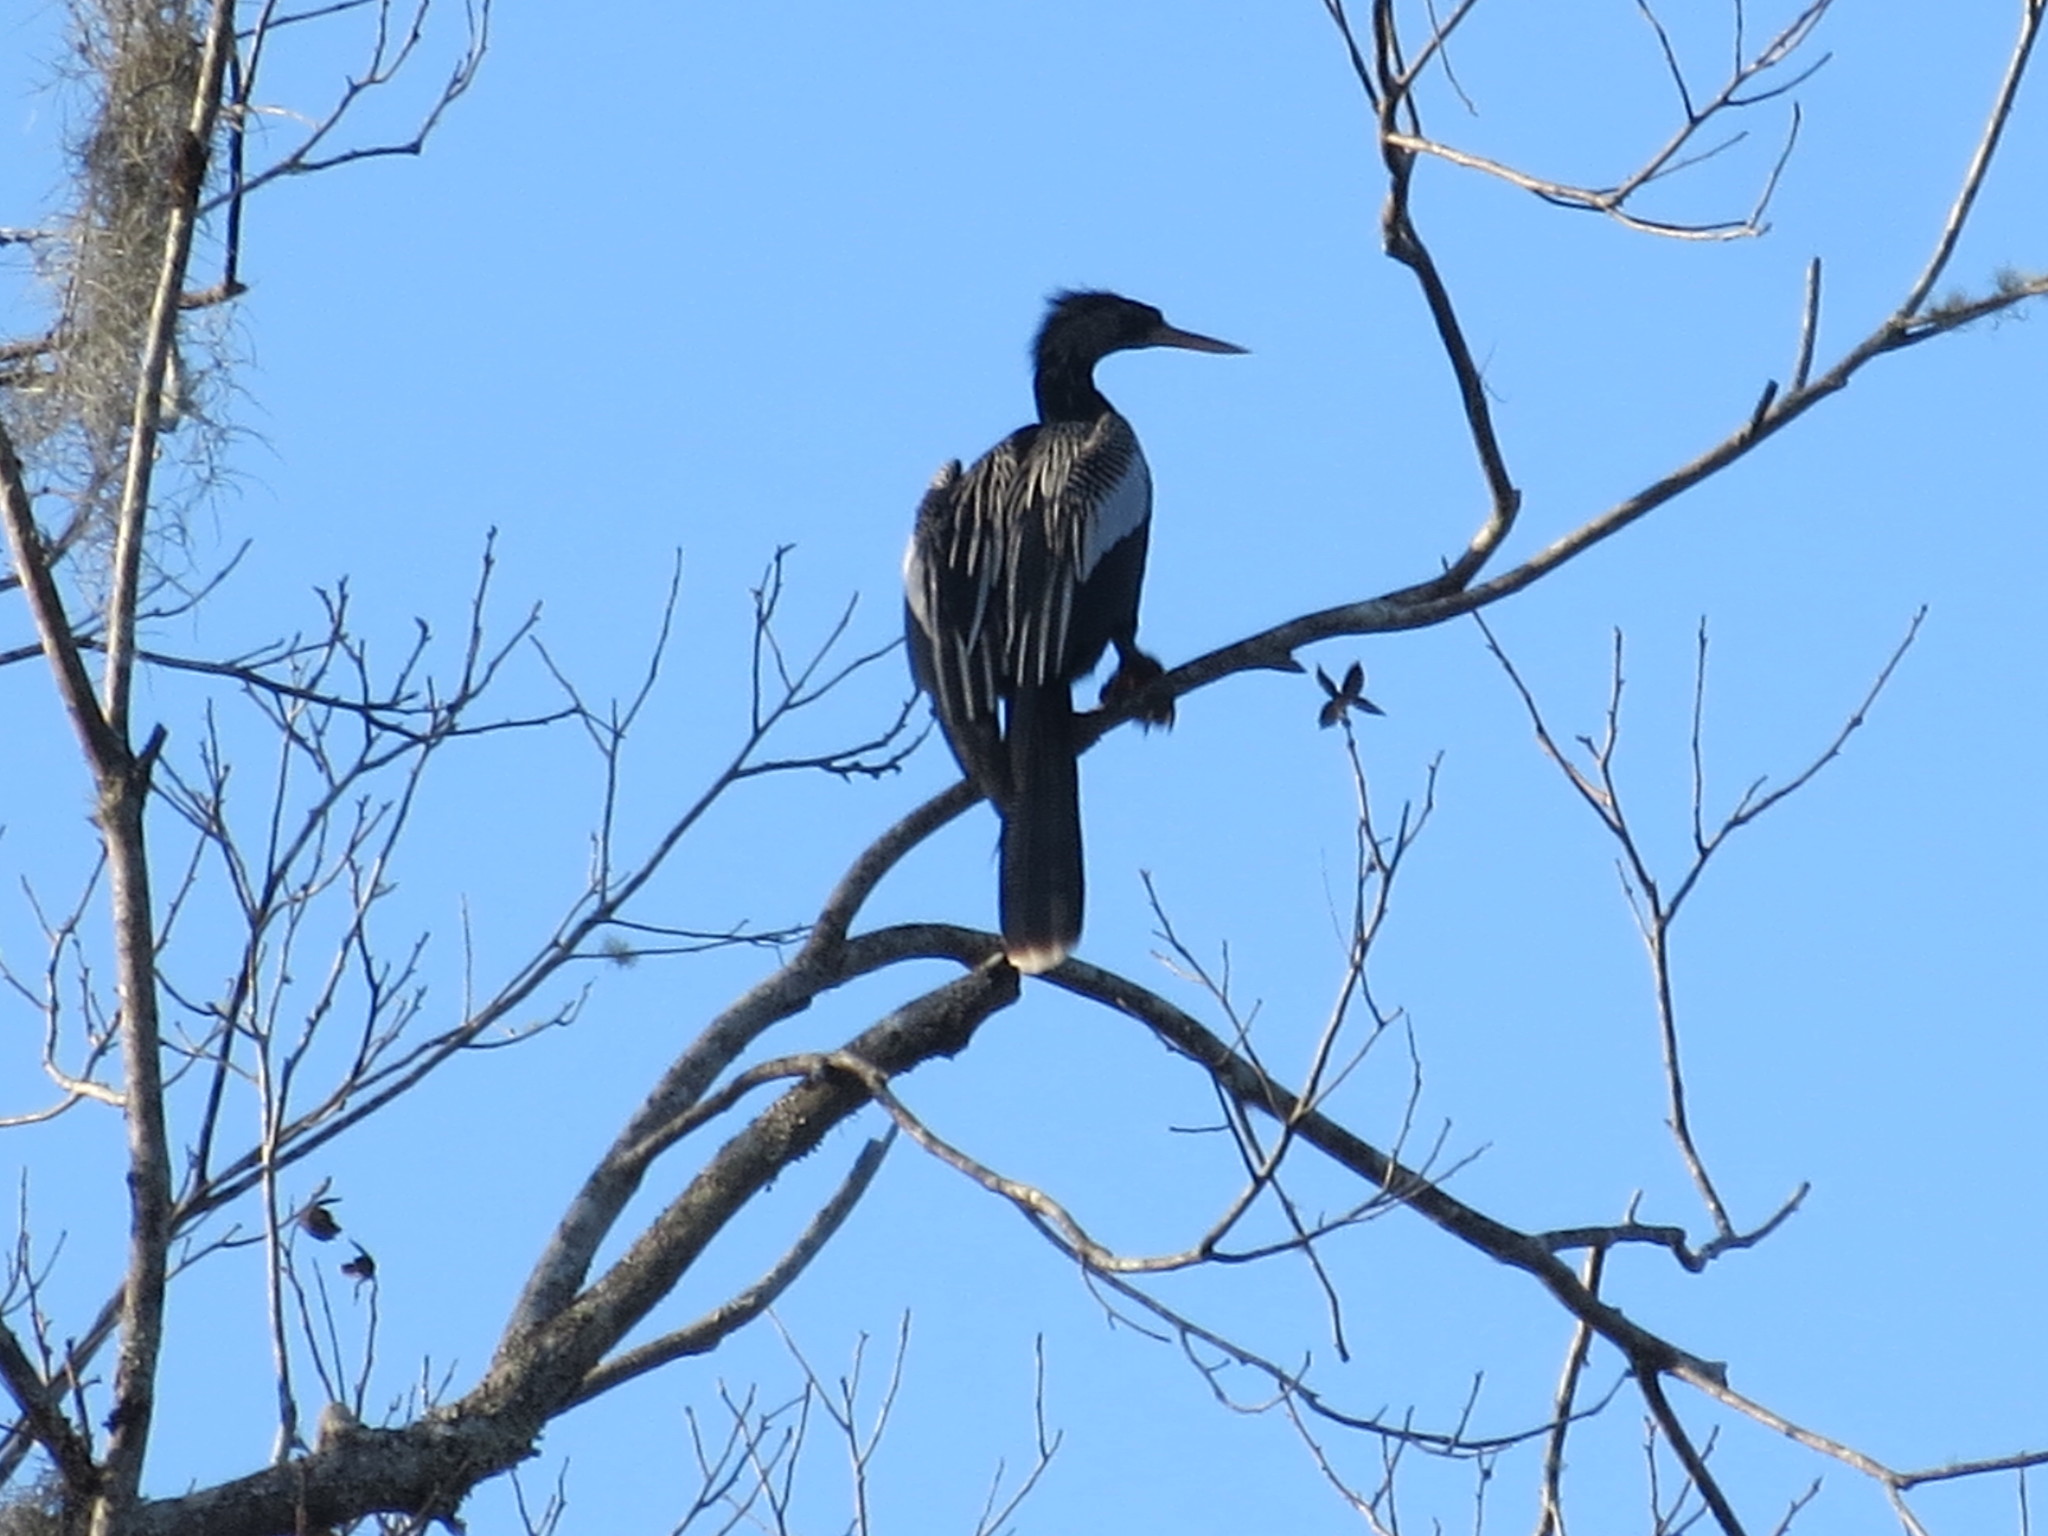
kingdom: Animalia
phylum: Chordata
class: Aves
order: Suliformes
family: Anhingidae
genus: Anhinga
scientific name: Anhinga anhinga
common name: Anhinga
